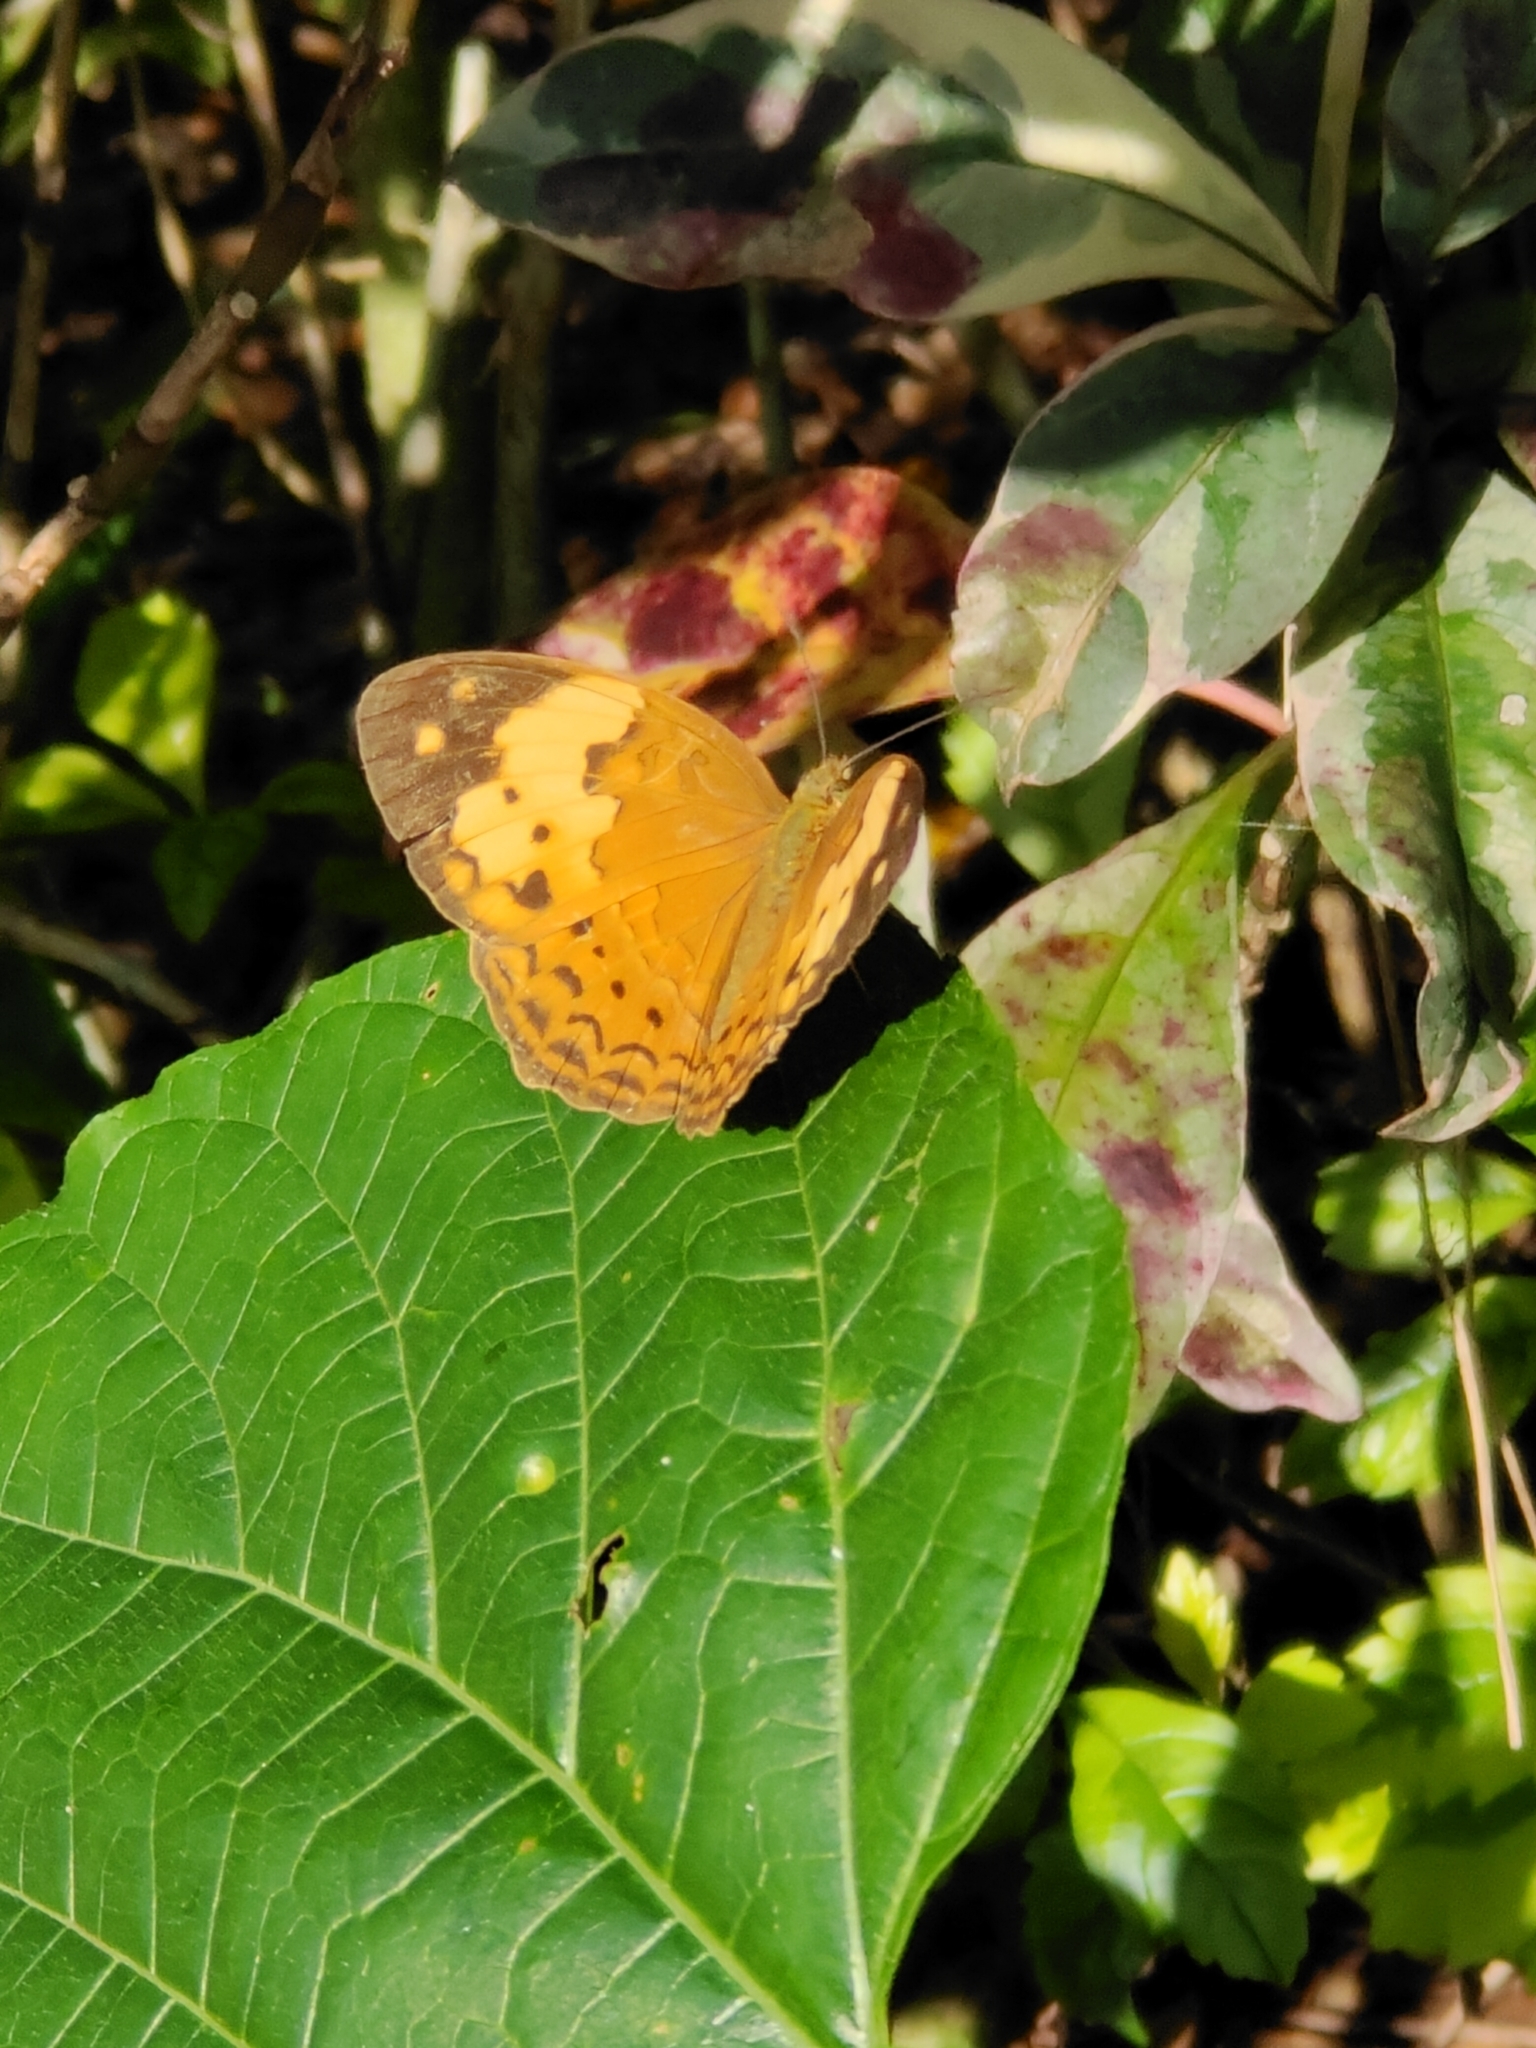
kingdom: Animalia
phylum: Arthropoda
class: Insecta
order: Lepidoptera
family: Nymphalidae
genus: Cupha
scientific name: Cupha erymanthis
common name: Rustic
